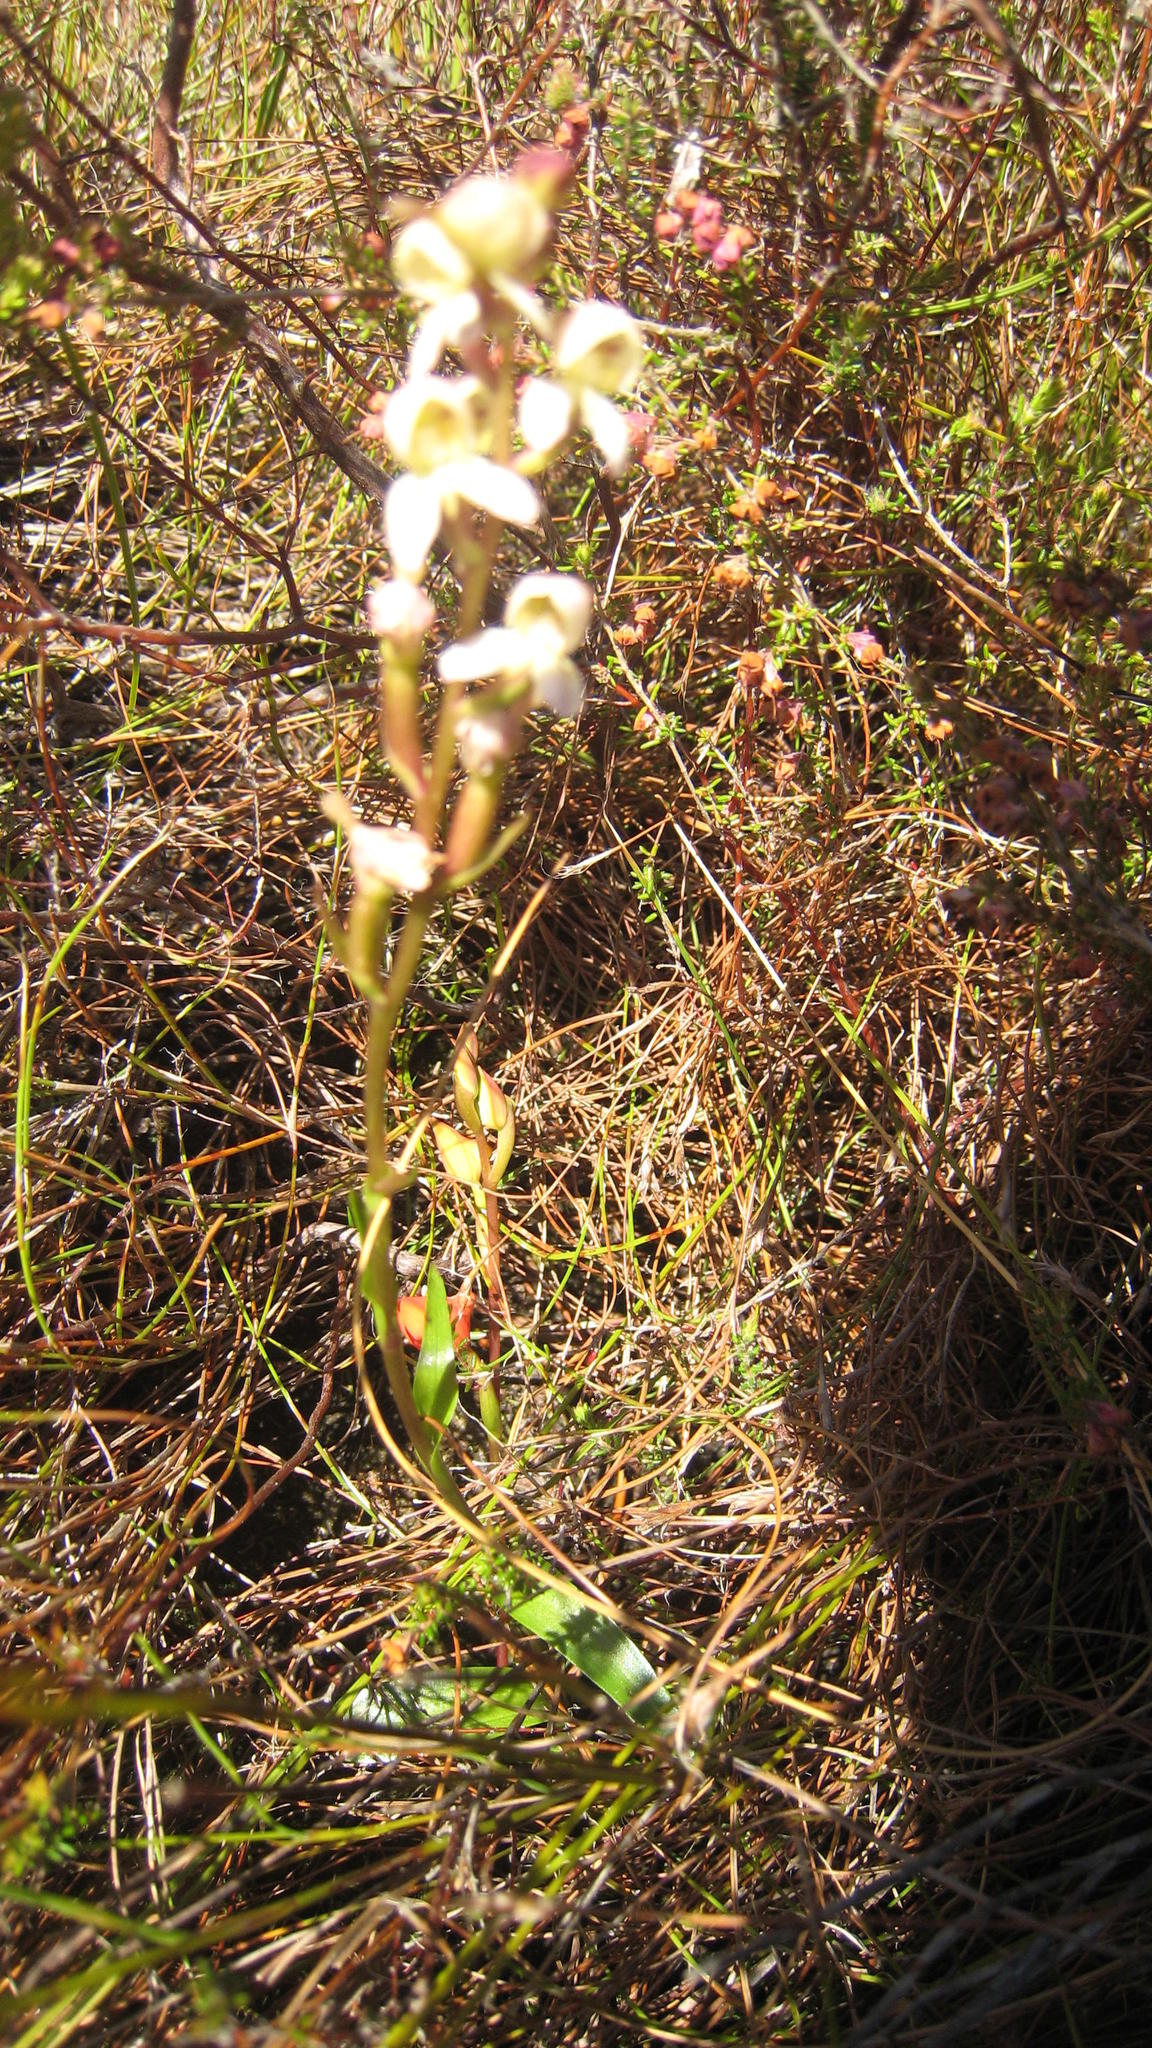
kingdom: Plantae
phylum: Tracheophyta
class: Liliopsida
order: Asparagales
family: Orchidaceae
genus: Disa
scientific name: Disa uncinata
